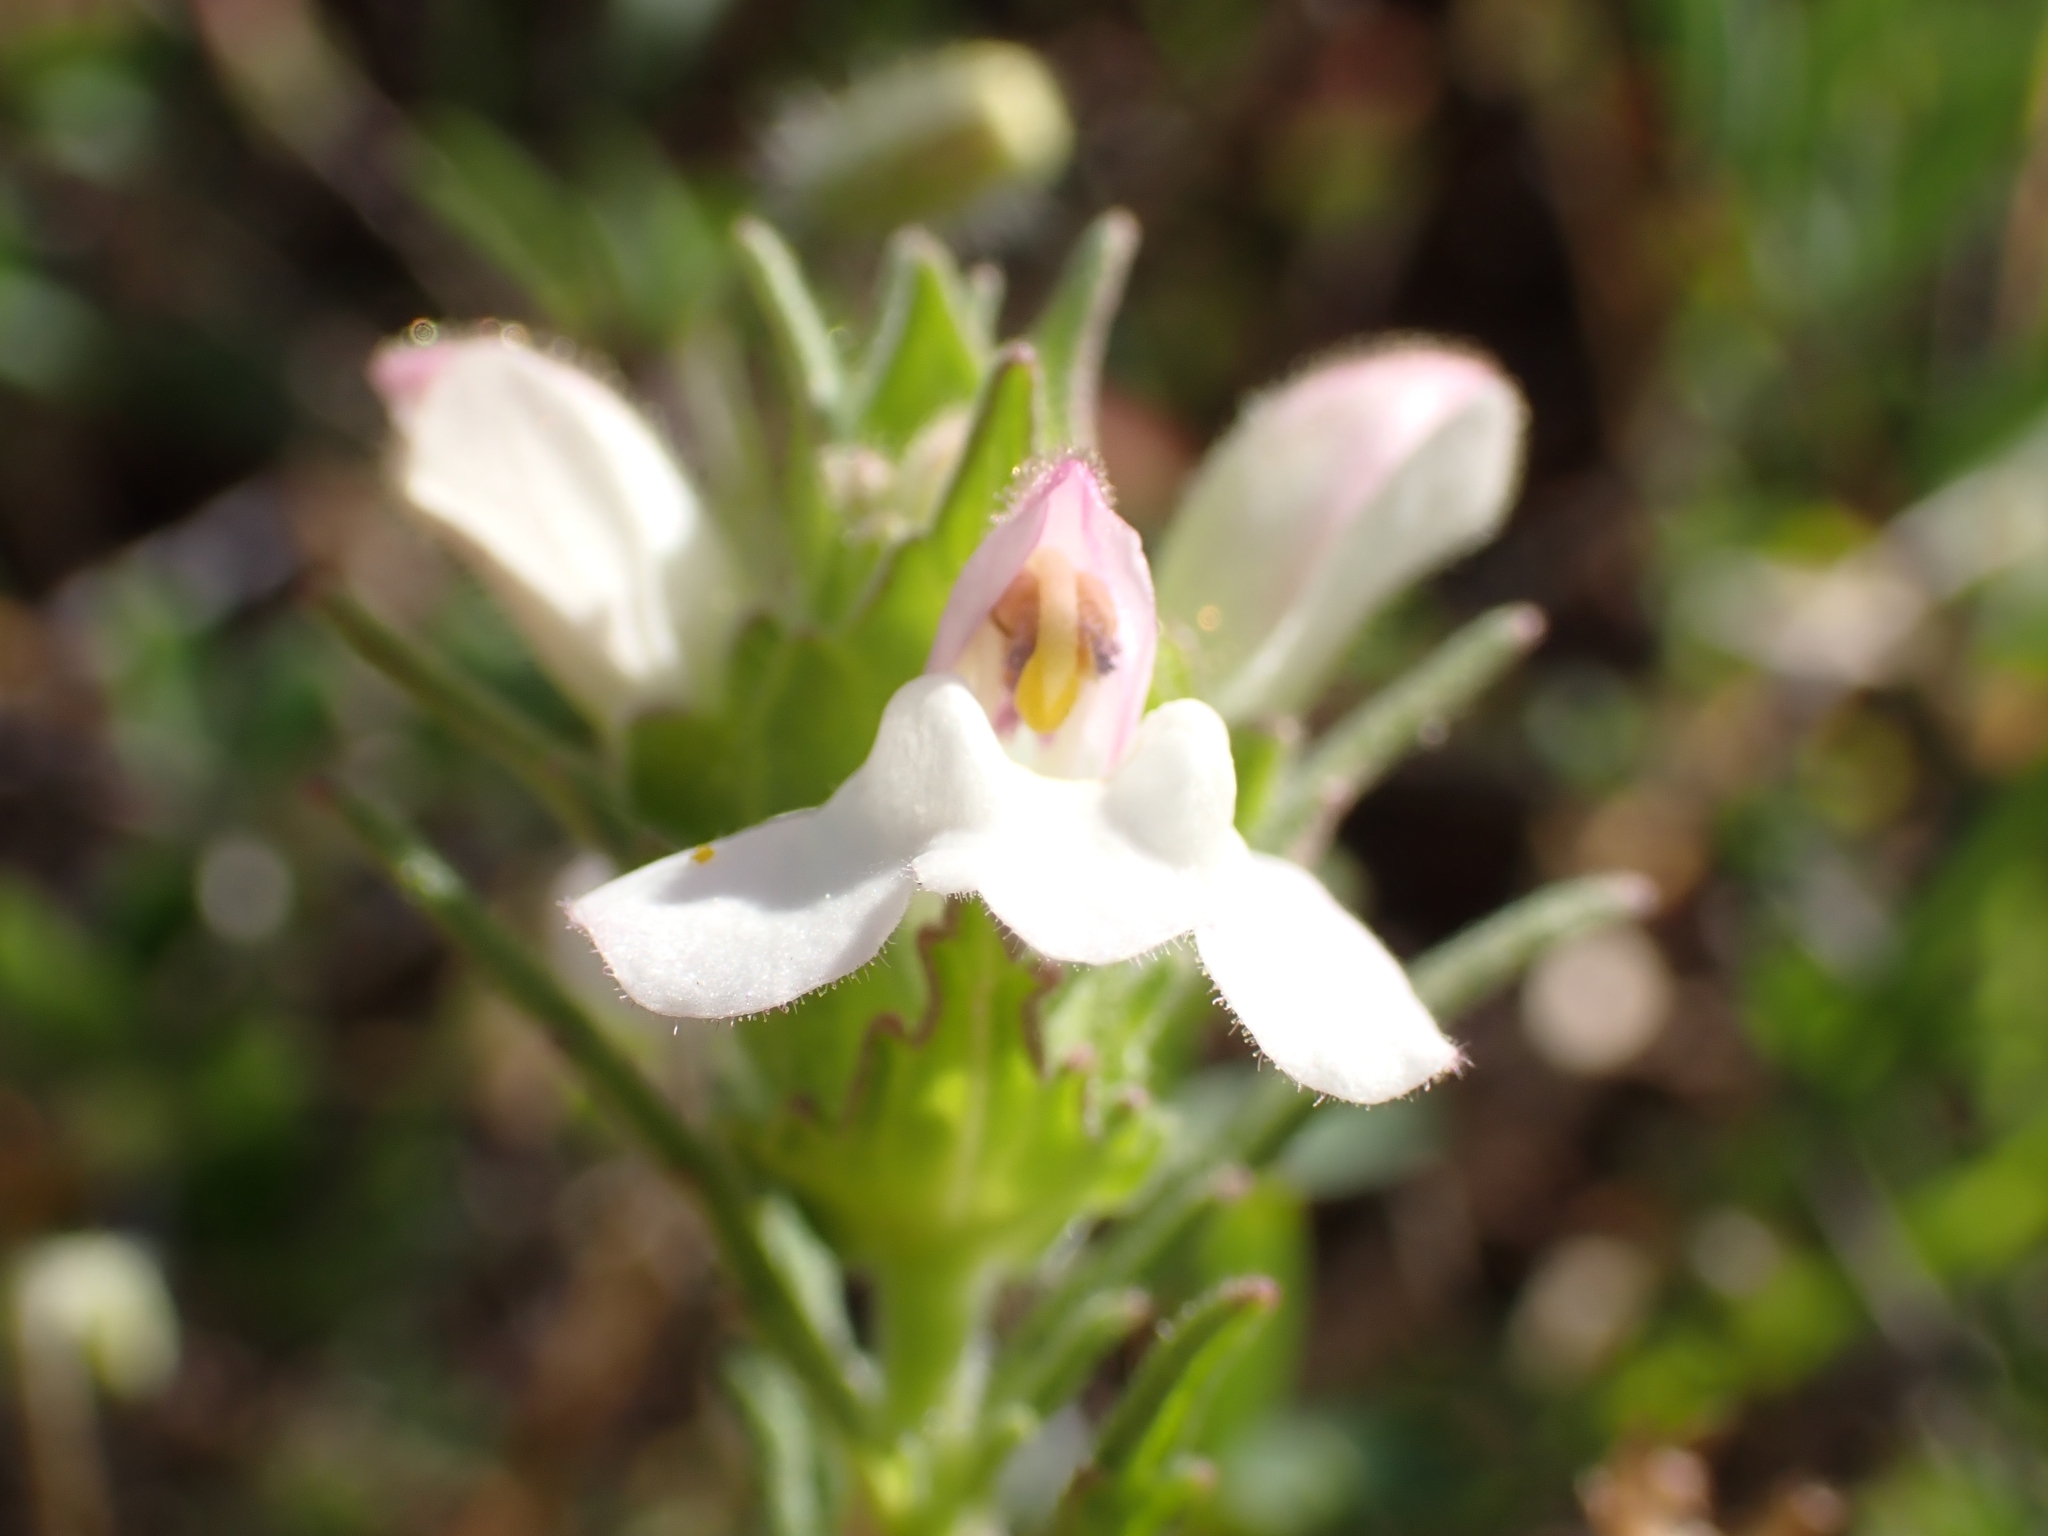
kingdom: Plantae
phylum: Tracheophyta
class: Magnoliopsida
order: Lamiales
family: Orobanchaceae
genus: Bellardia
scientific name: Bellardia trixago
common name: Mediterranean lineseed
